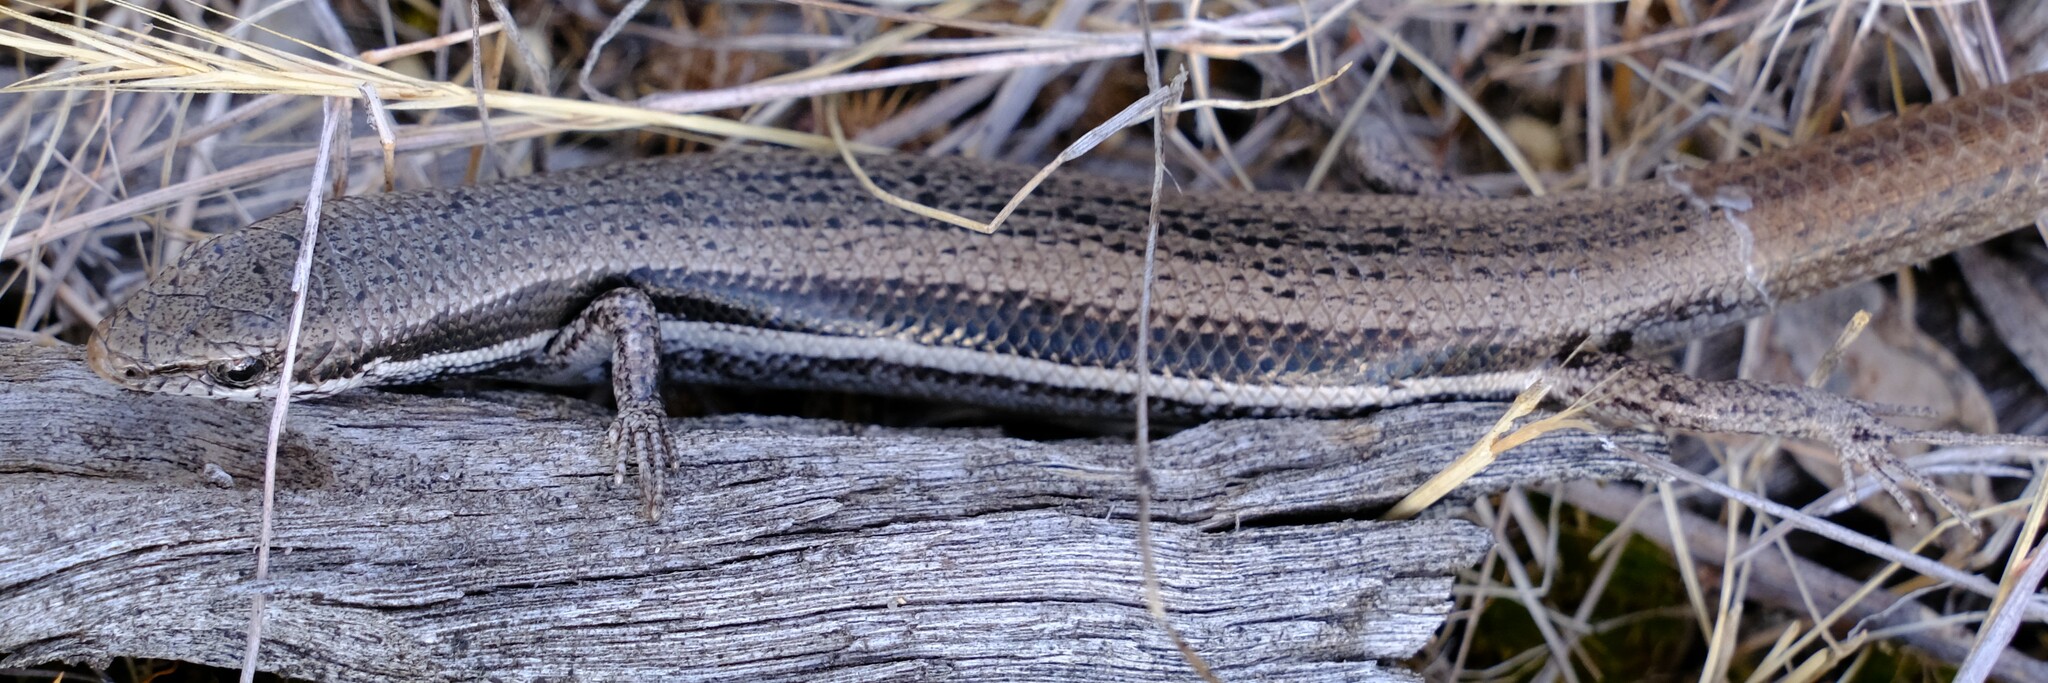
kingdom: Animalia
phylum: Chordata
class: Squamata
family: Scincidae
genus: Morethia
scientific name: Morethia boulengeri
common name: South-eastern morethia skink
